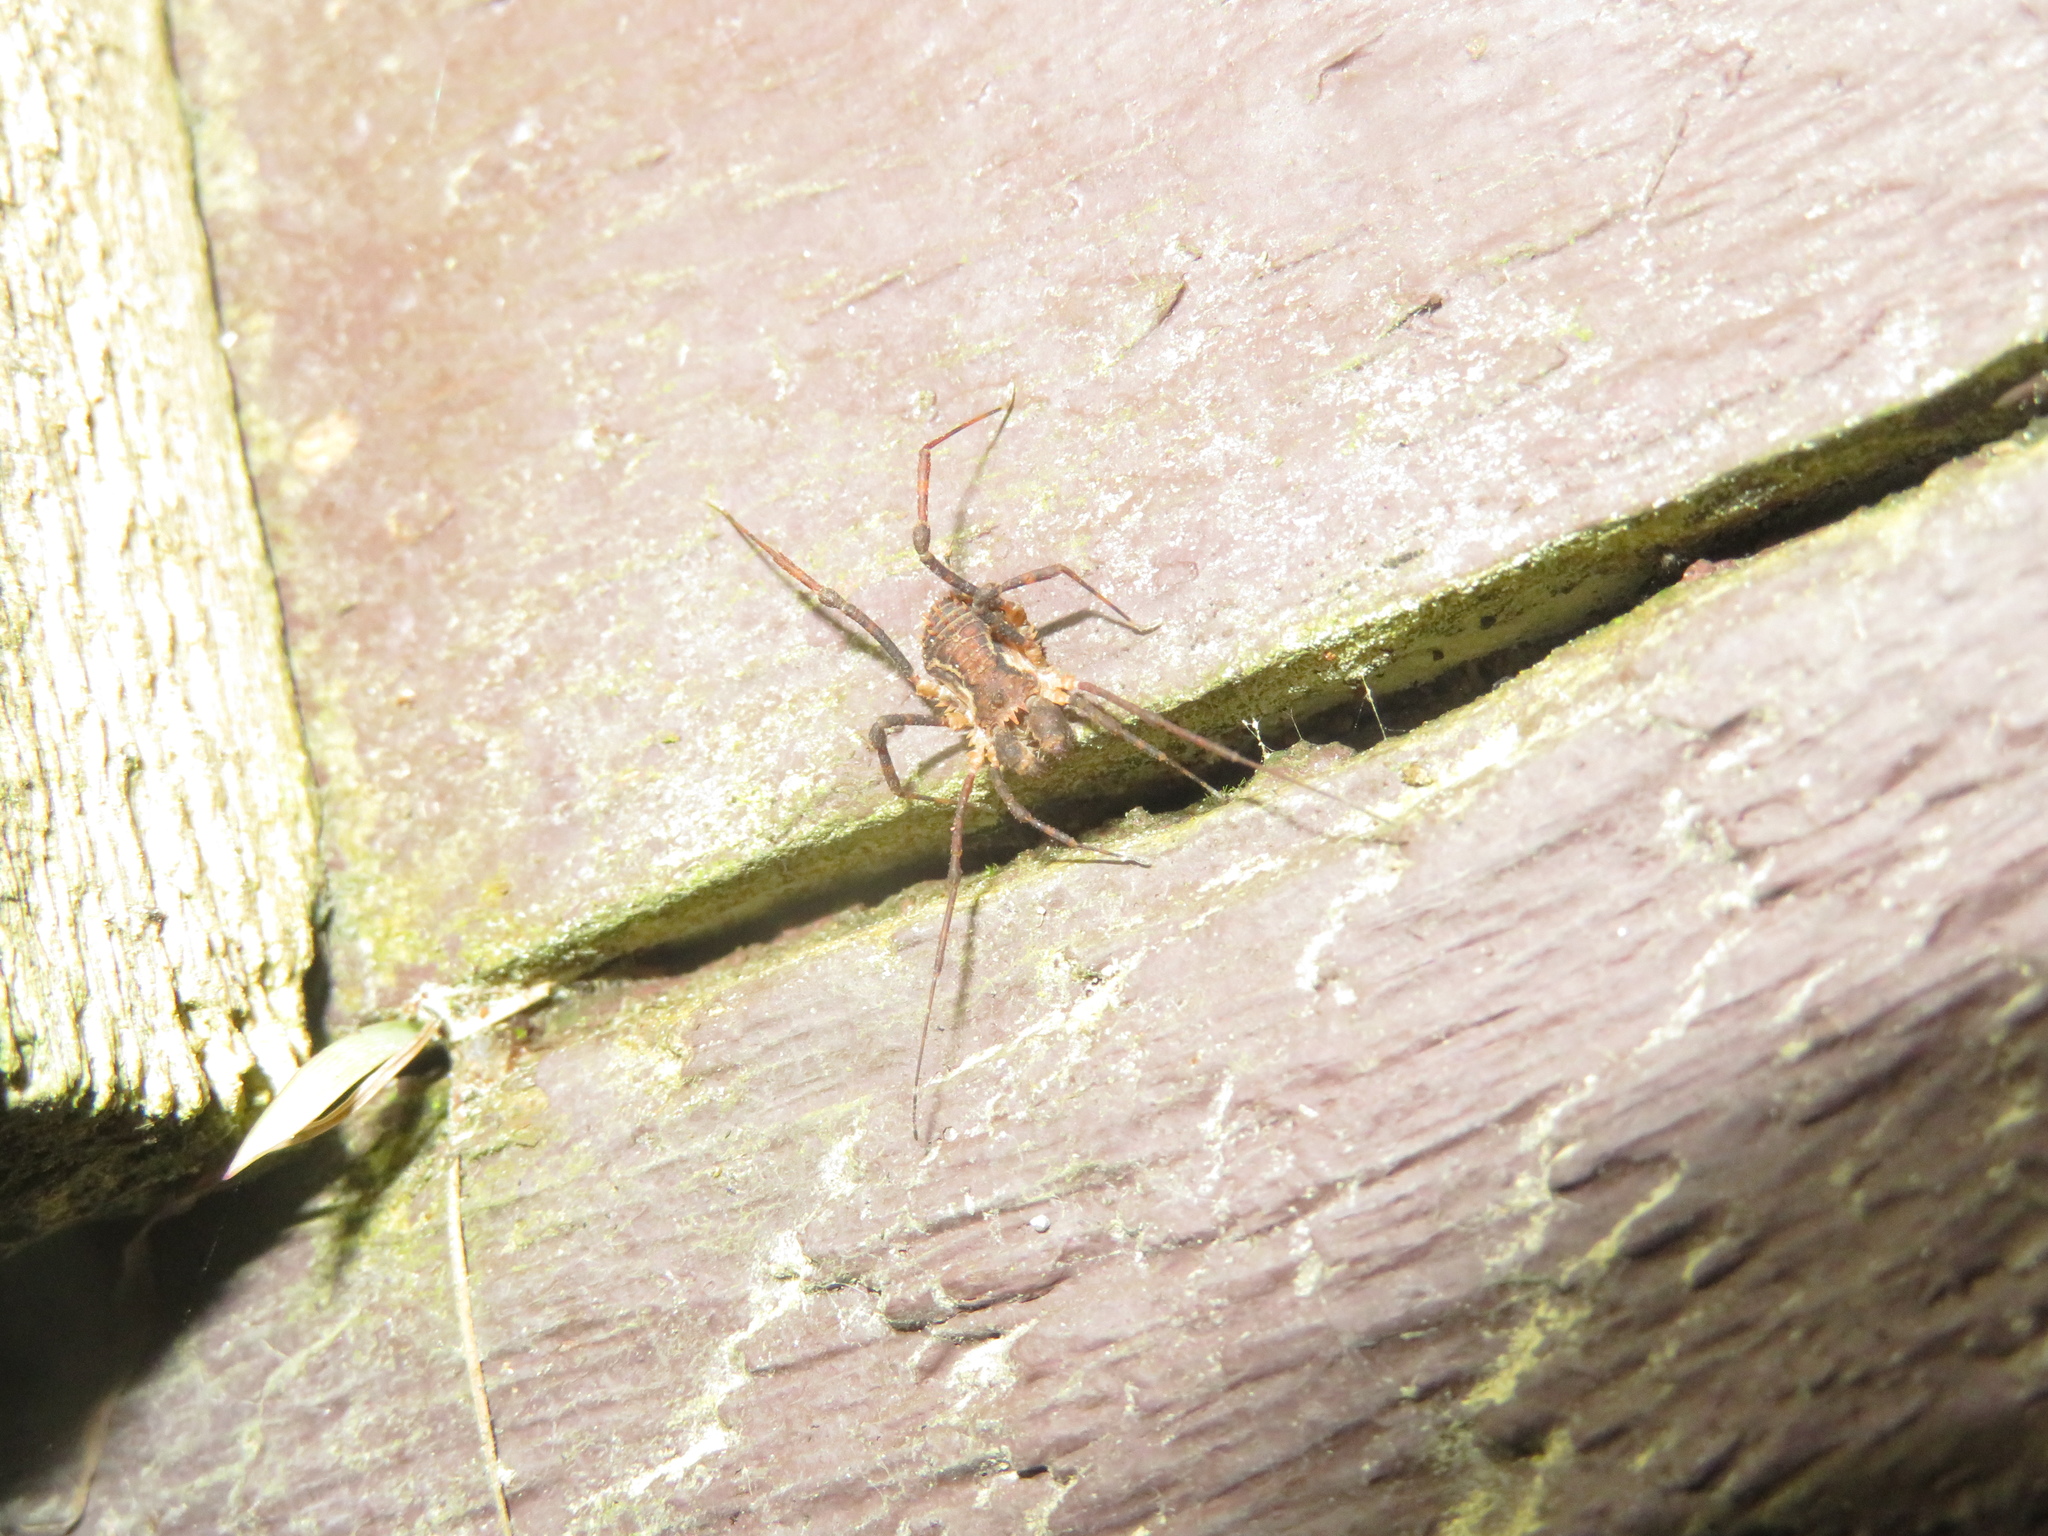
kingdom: Animalia
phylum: Arthropoda
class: Arachnida
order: Opiliones
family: Triaenonychidae
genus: Algidia
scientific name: Algidia nigriflava
